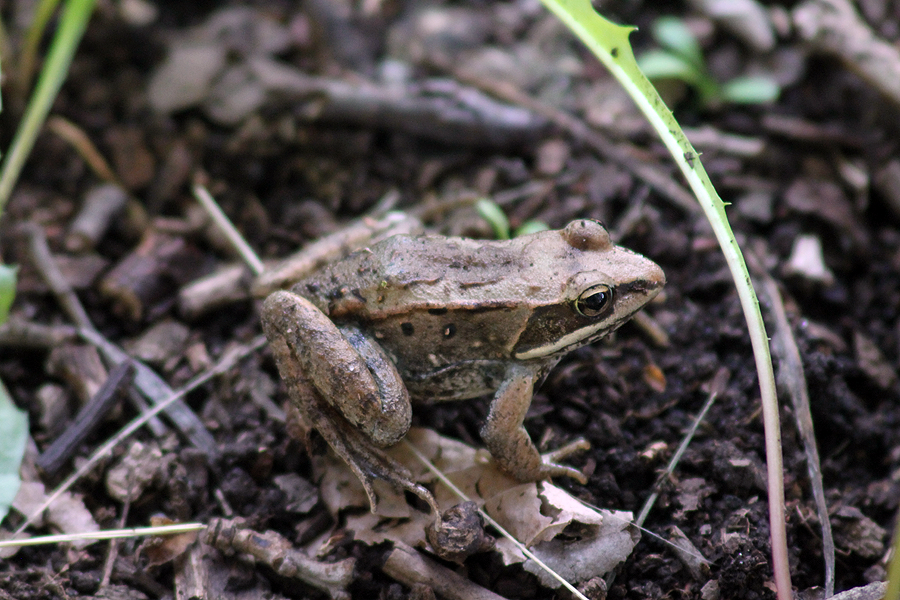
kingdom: Animalia
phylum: Chordata
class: Amphibia
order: Anura
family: Ranidae
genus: Lithobates
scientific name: Lithobates sylvaticus
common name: Wood frog
